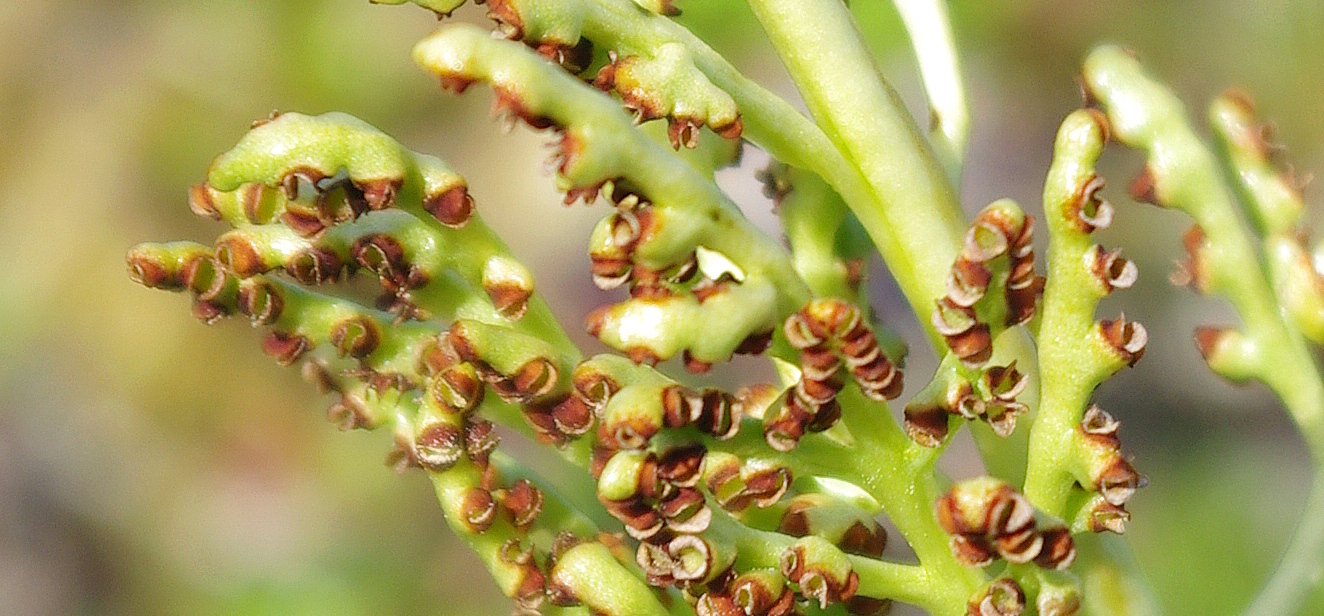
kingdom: Plantae
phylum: Tracheophyta
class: Polypodiopsida
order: Ophioglossales
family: Ophioglossaceae
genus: Botrychium
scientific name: Botrychium lunaria
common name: Moonwort
